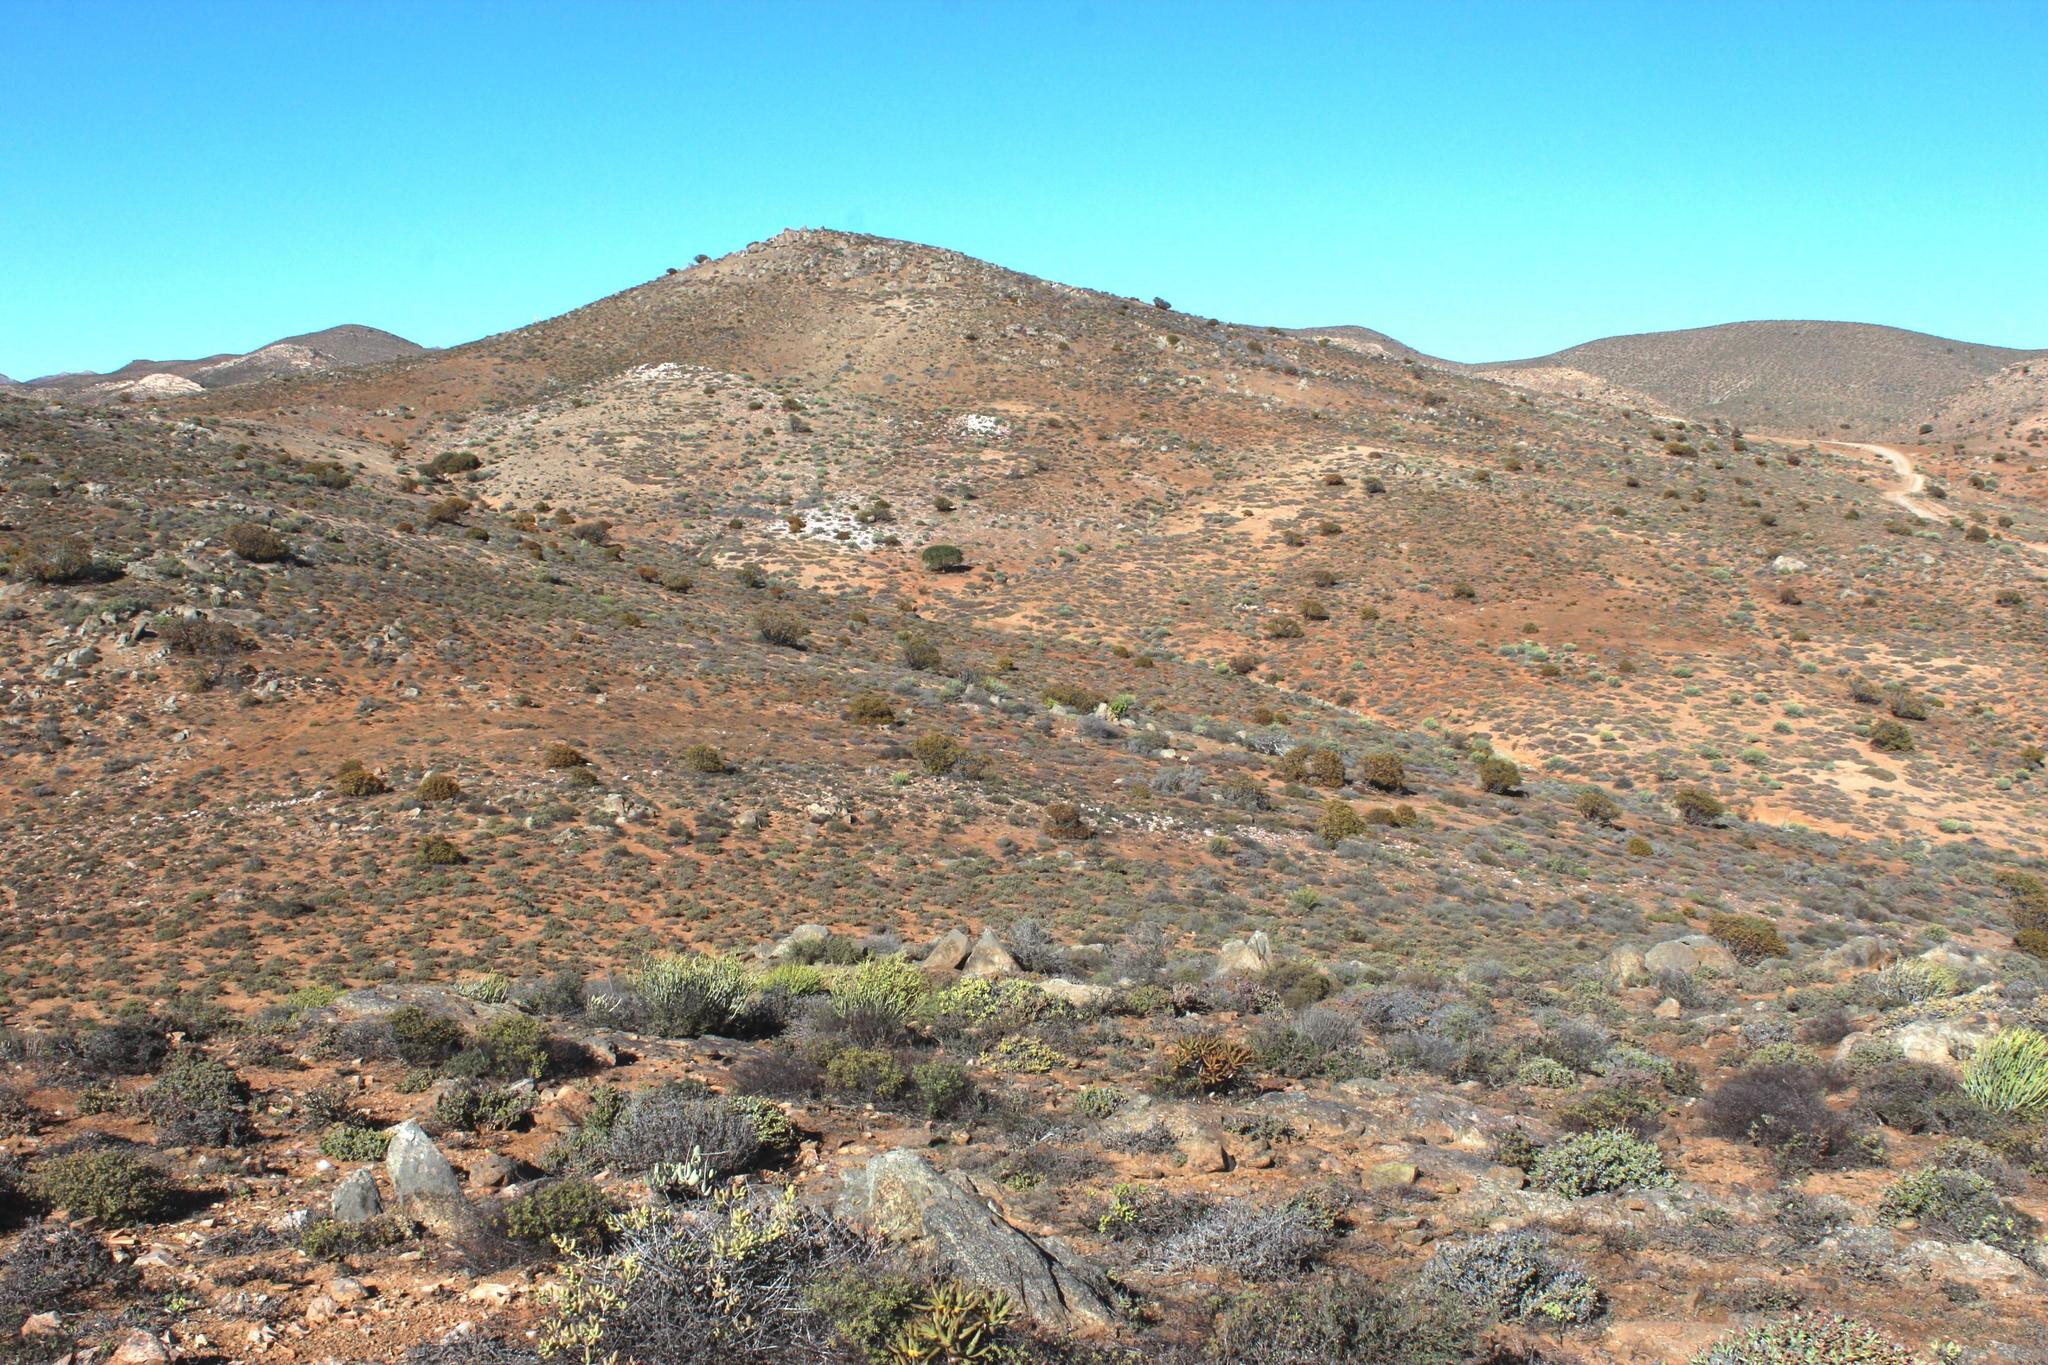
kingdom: Plantae
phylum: Tracheophyta
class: Liliopsida
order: Asparagales
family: Asphodelaceae
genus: Aloidendron
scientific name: Aloidendron ramosissimum
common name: Bush quiver tree
